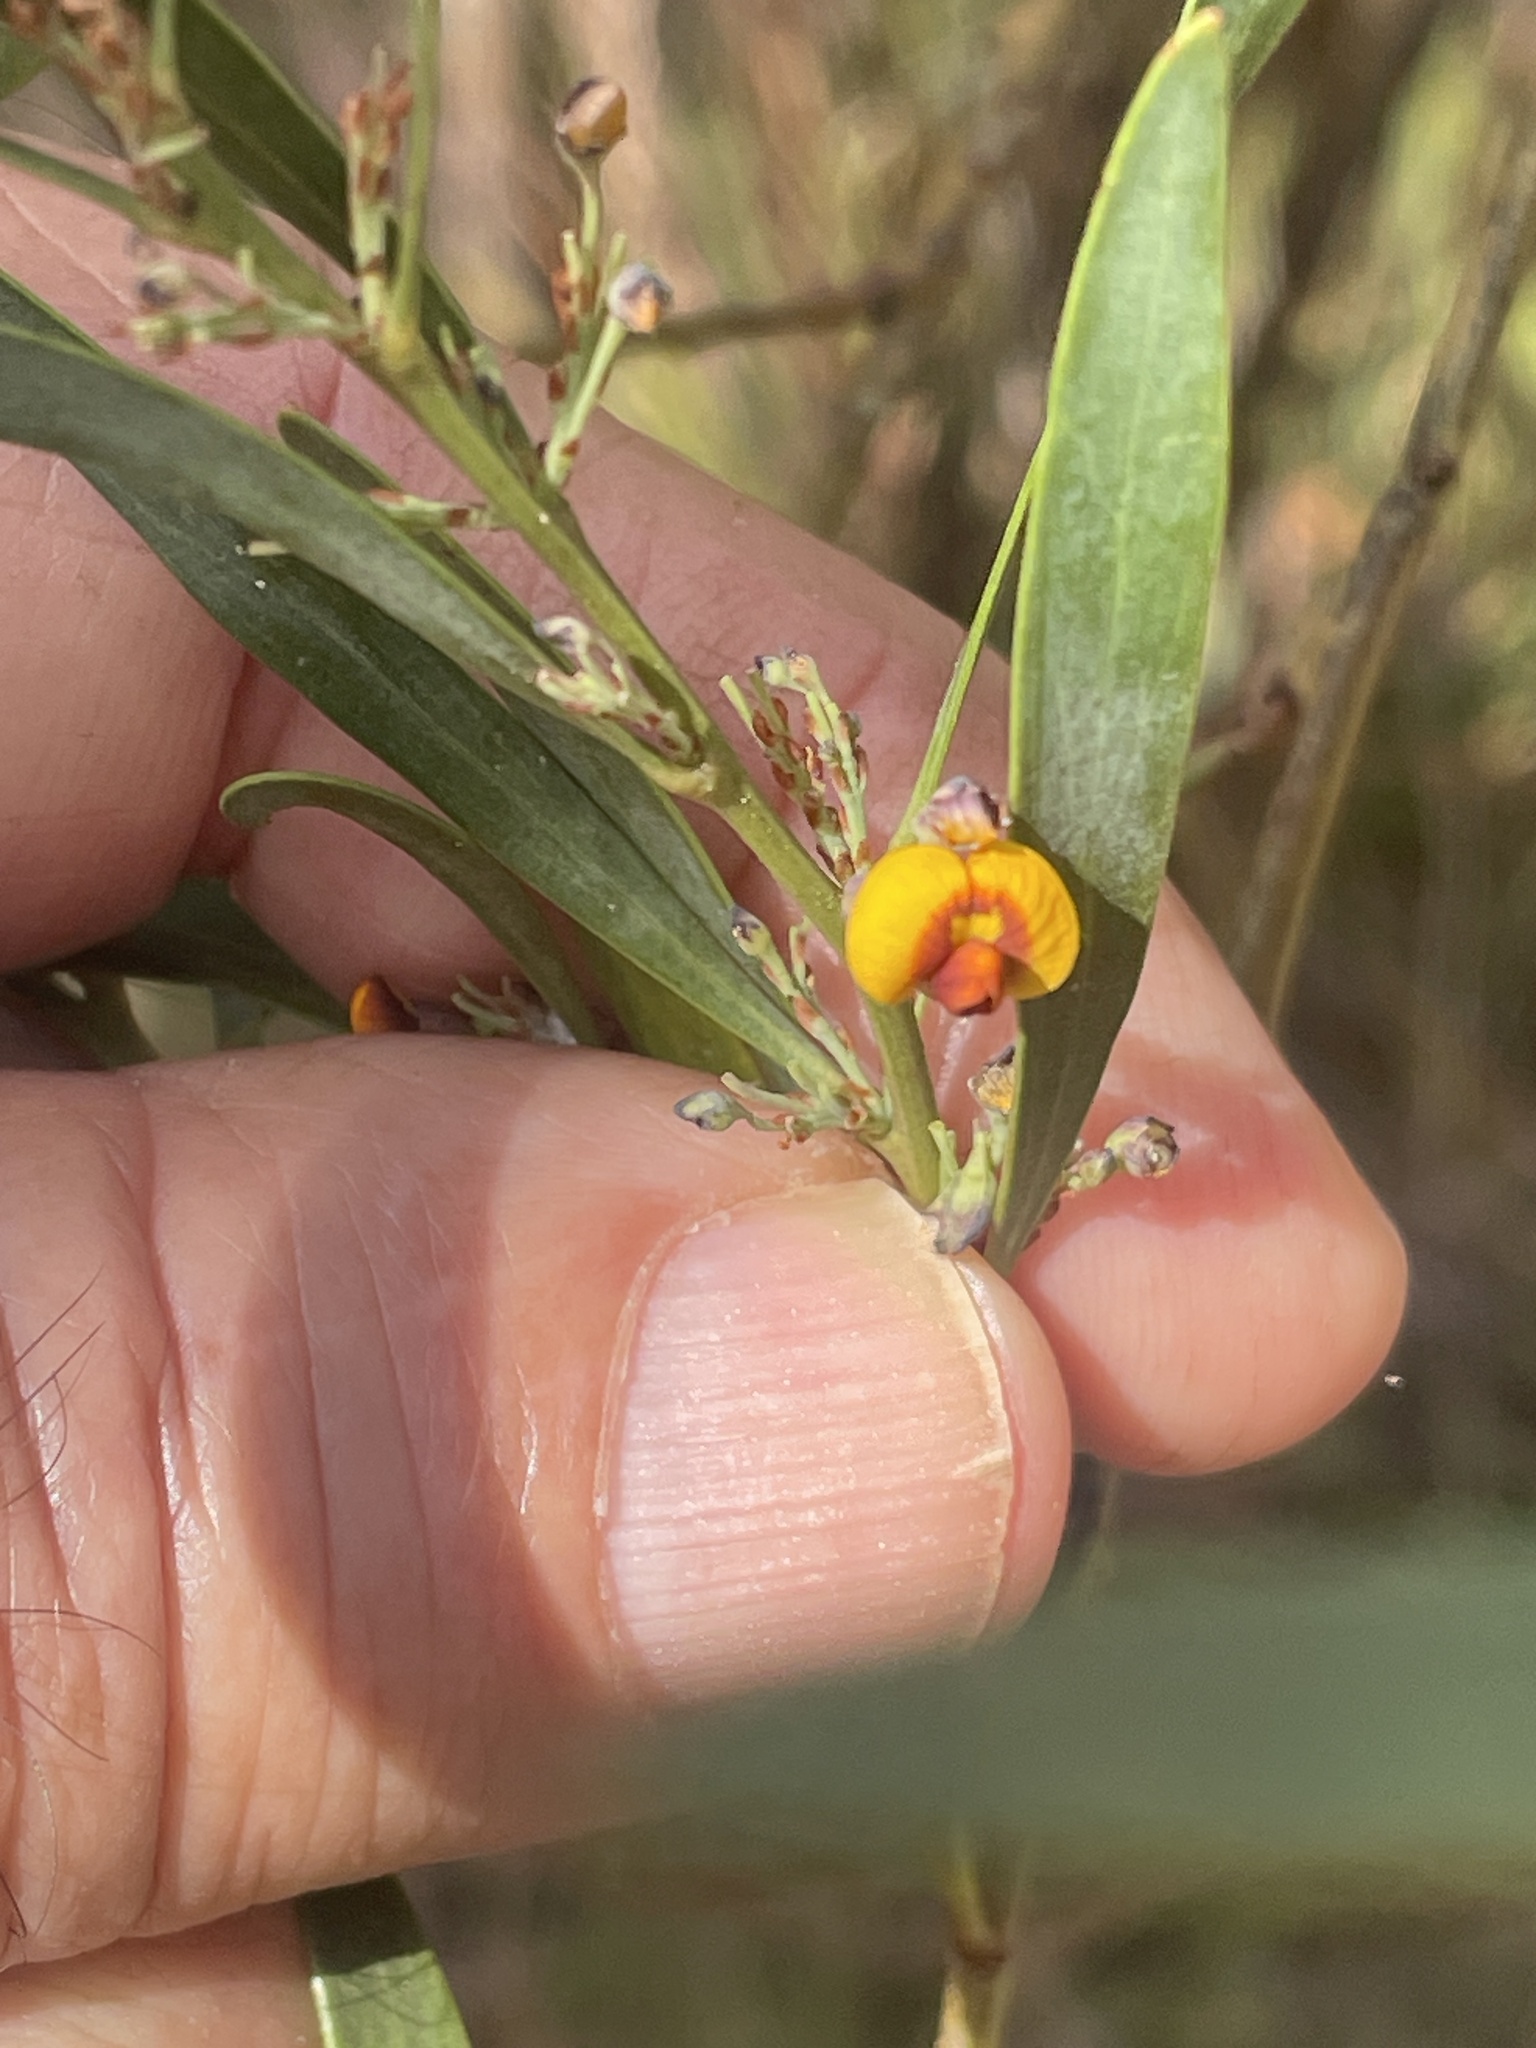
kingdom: Plantae
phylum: Tracheophyta
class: Magnoliopsida
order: Fabales
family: Fabaceae
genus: Daviesia
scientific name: Daviesia mimosoides
